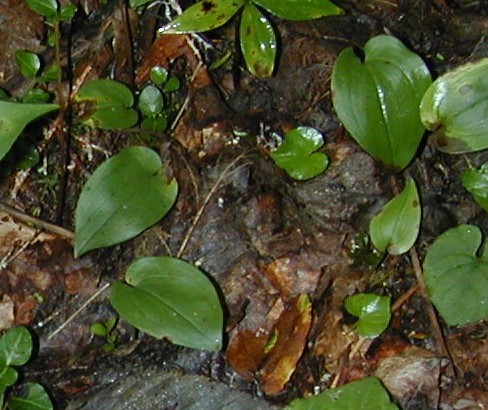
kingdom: Plantae
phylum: Tracheophyta
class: Liliopsida
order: Asparagales
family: Asparagaceae
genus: Maianthemum
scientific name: Maianthemum canadense
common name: False lily-of-the-valley
